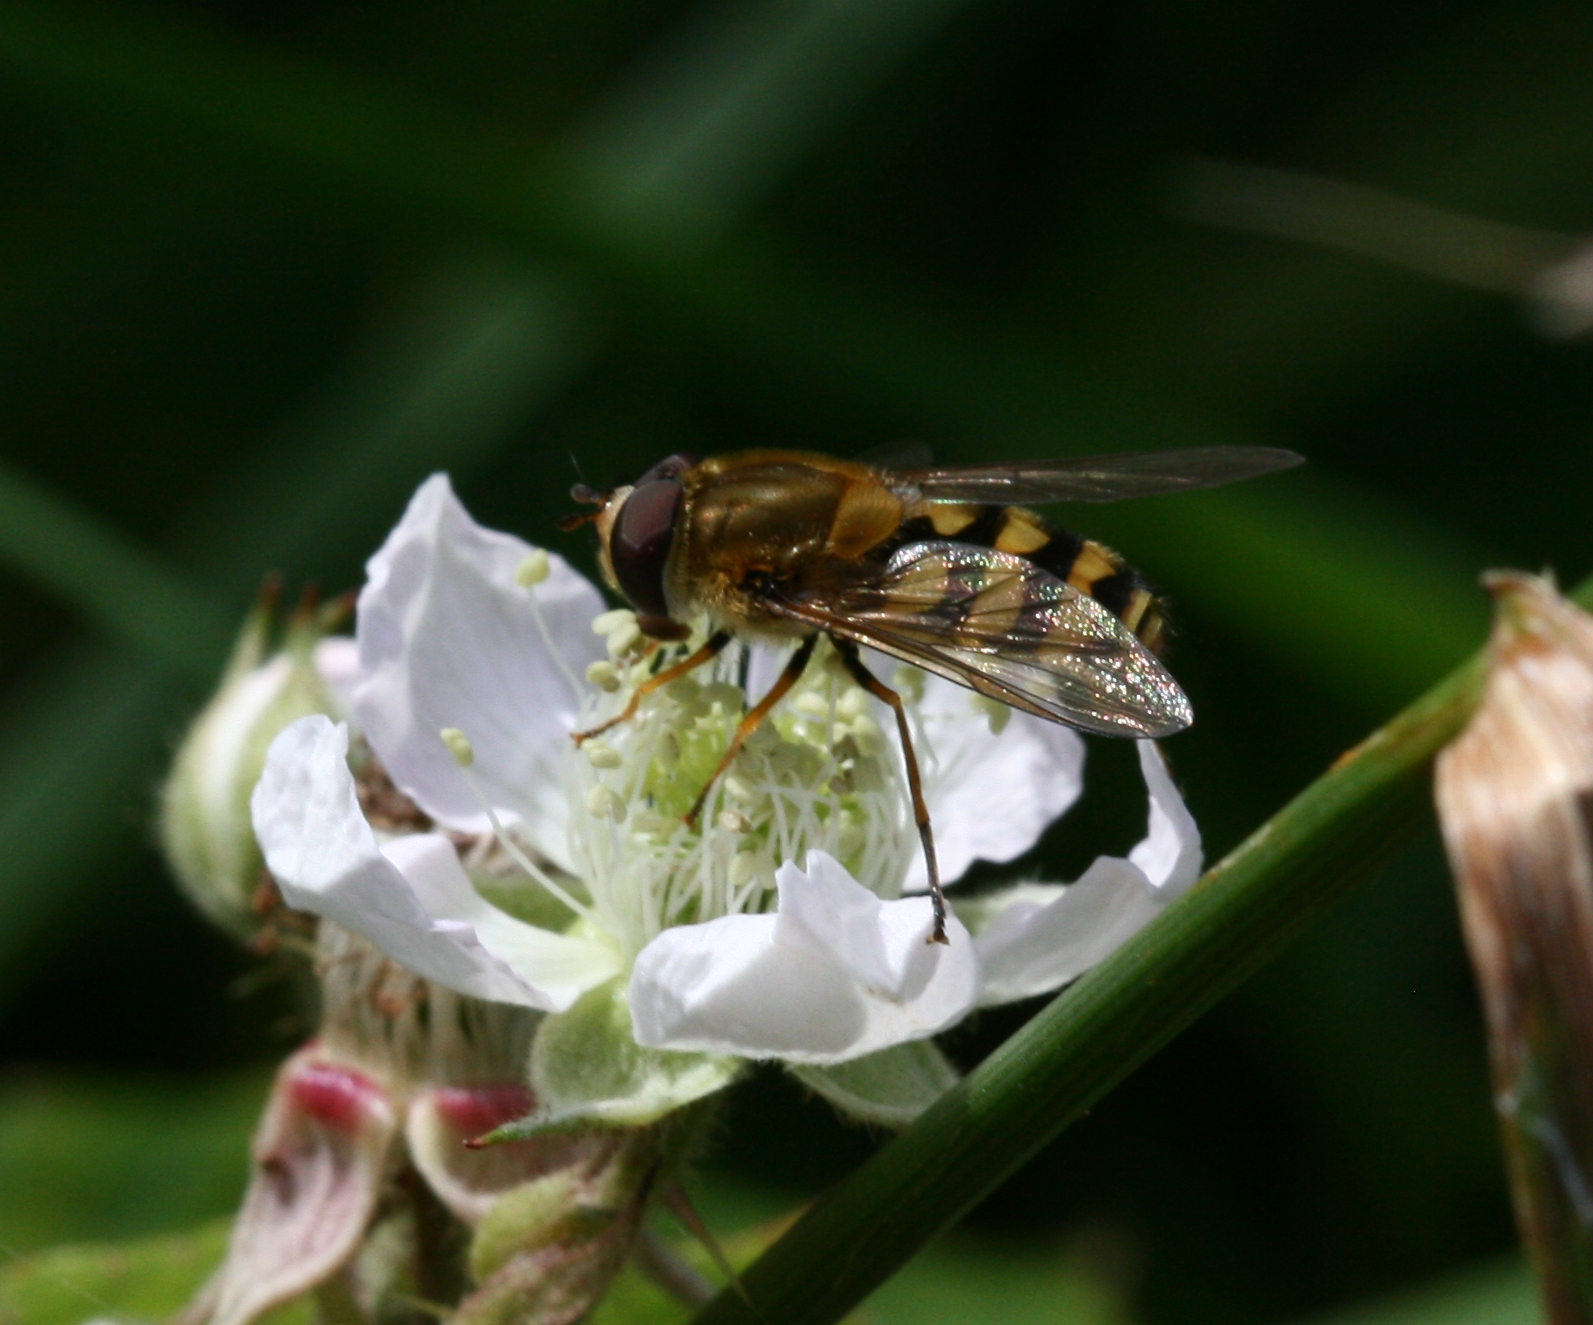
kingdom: Animalia
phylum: Arthropoda
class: Insecta
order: Diptera
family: Syrphidae
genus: Syrphus
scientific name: Syrphus
